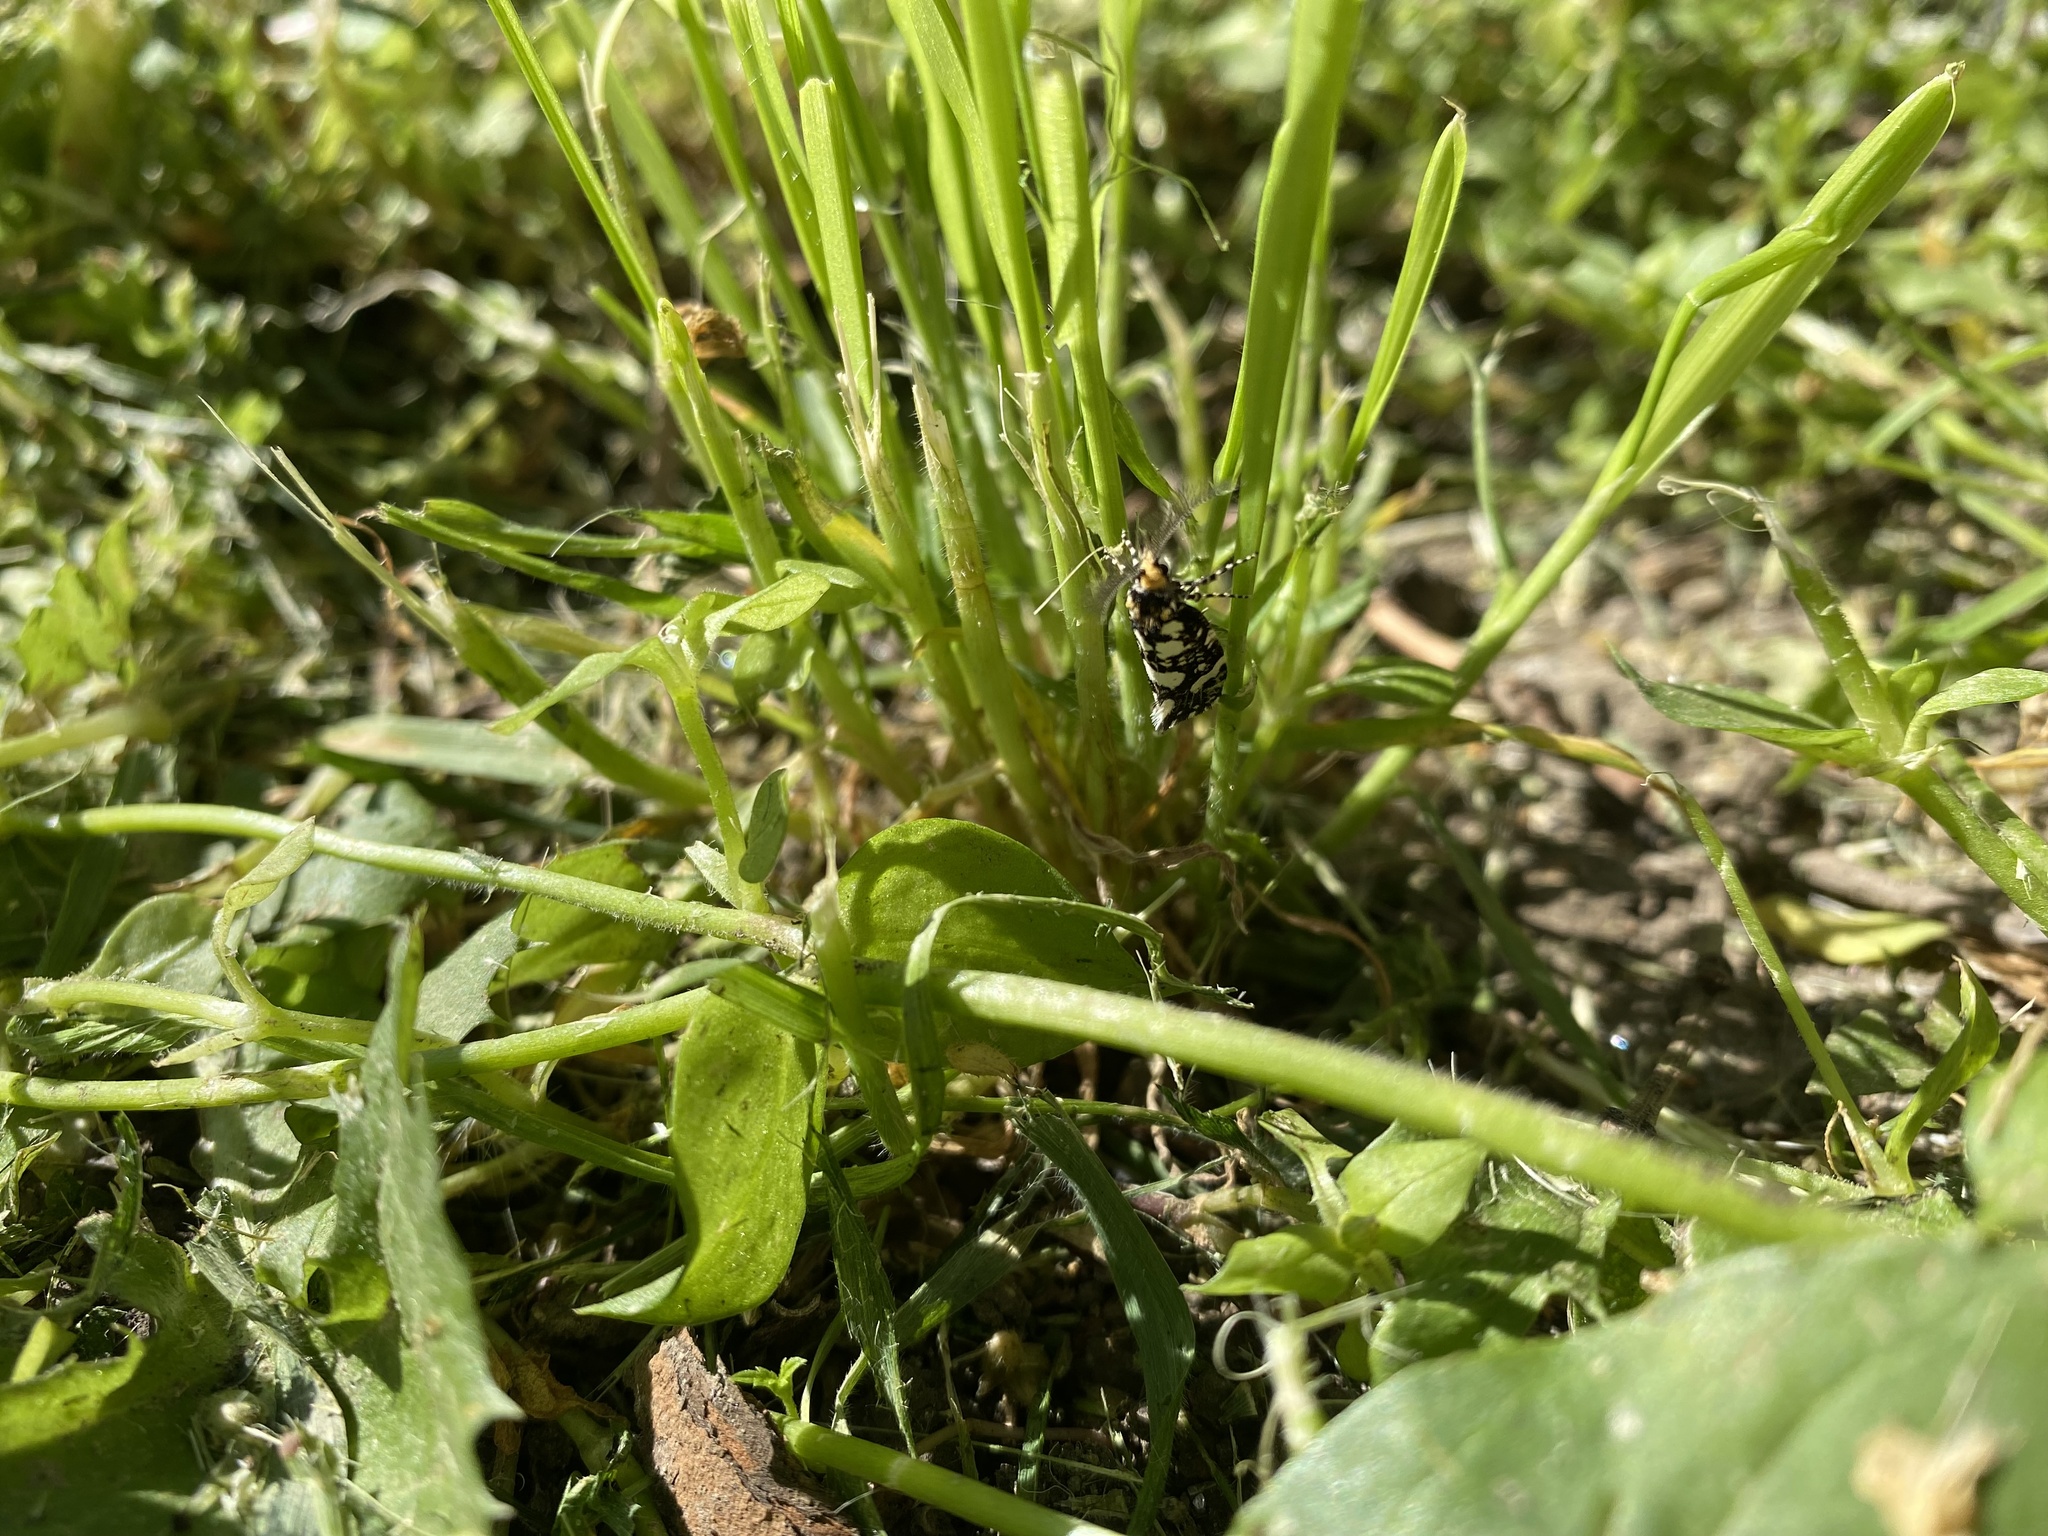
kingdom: Animalia
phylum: Arthropoda
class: Insecta
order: Lepidoptera
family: Tineidae
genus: Euplocamus
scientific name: Euplocamus anthracinalis
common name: Black clothes
